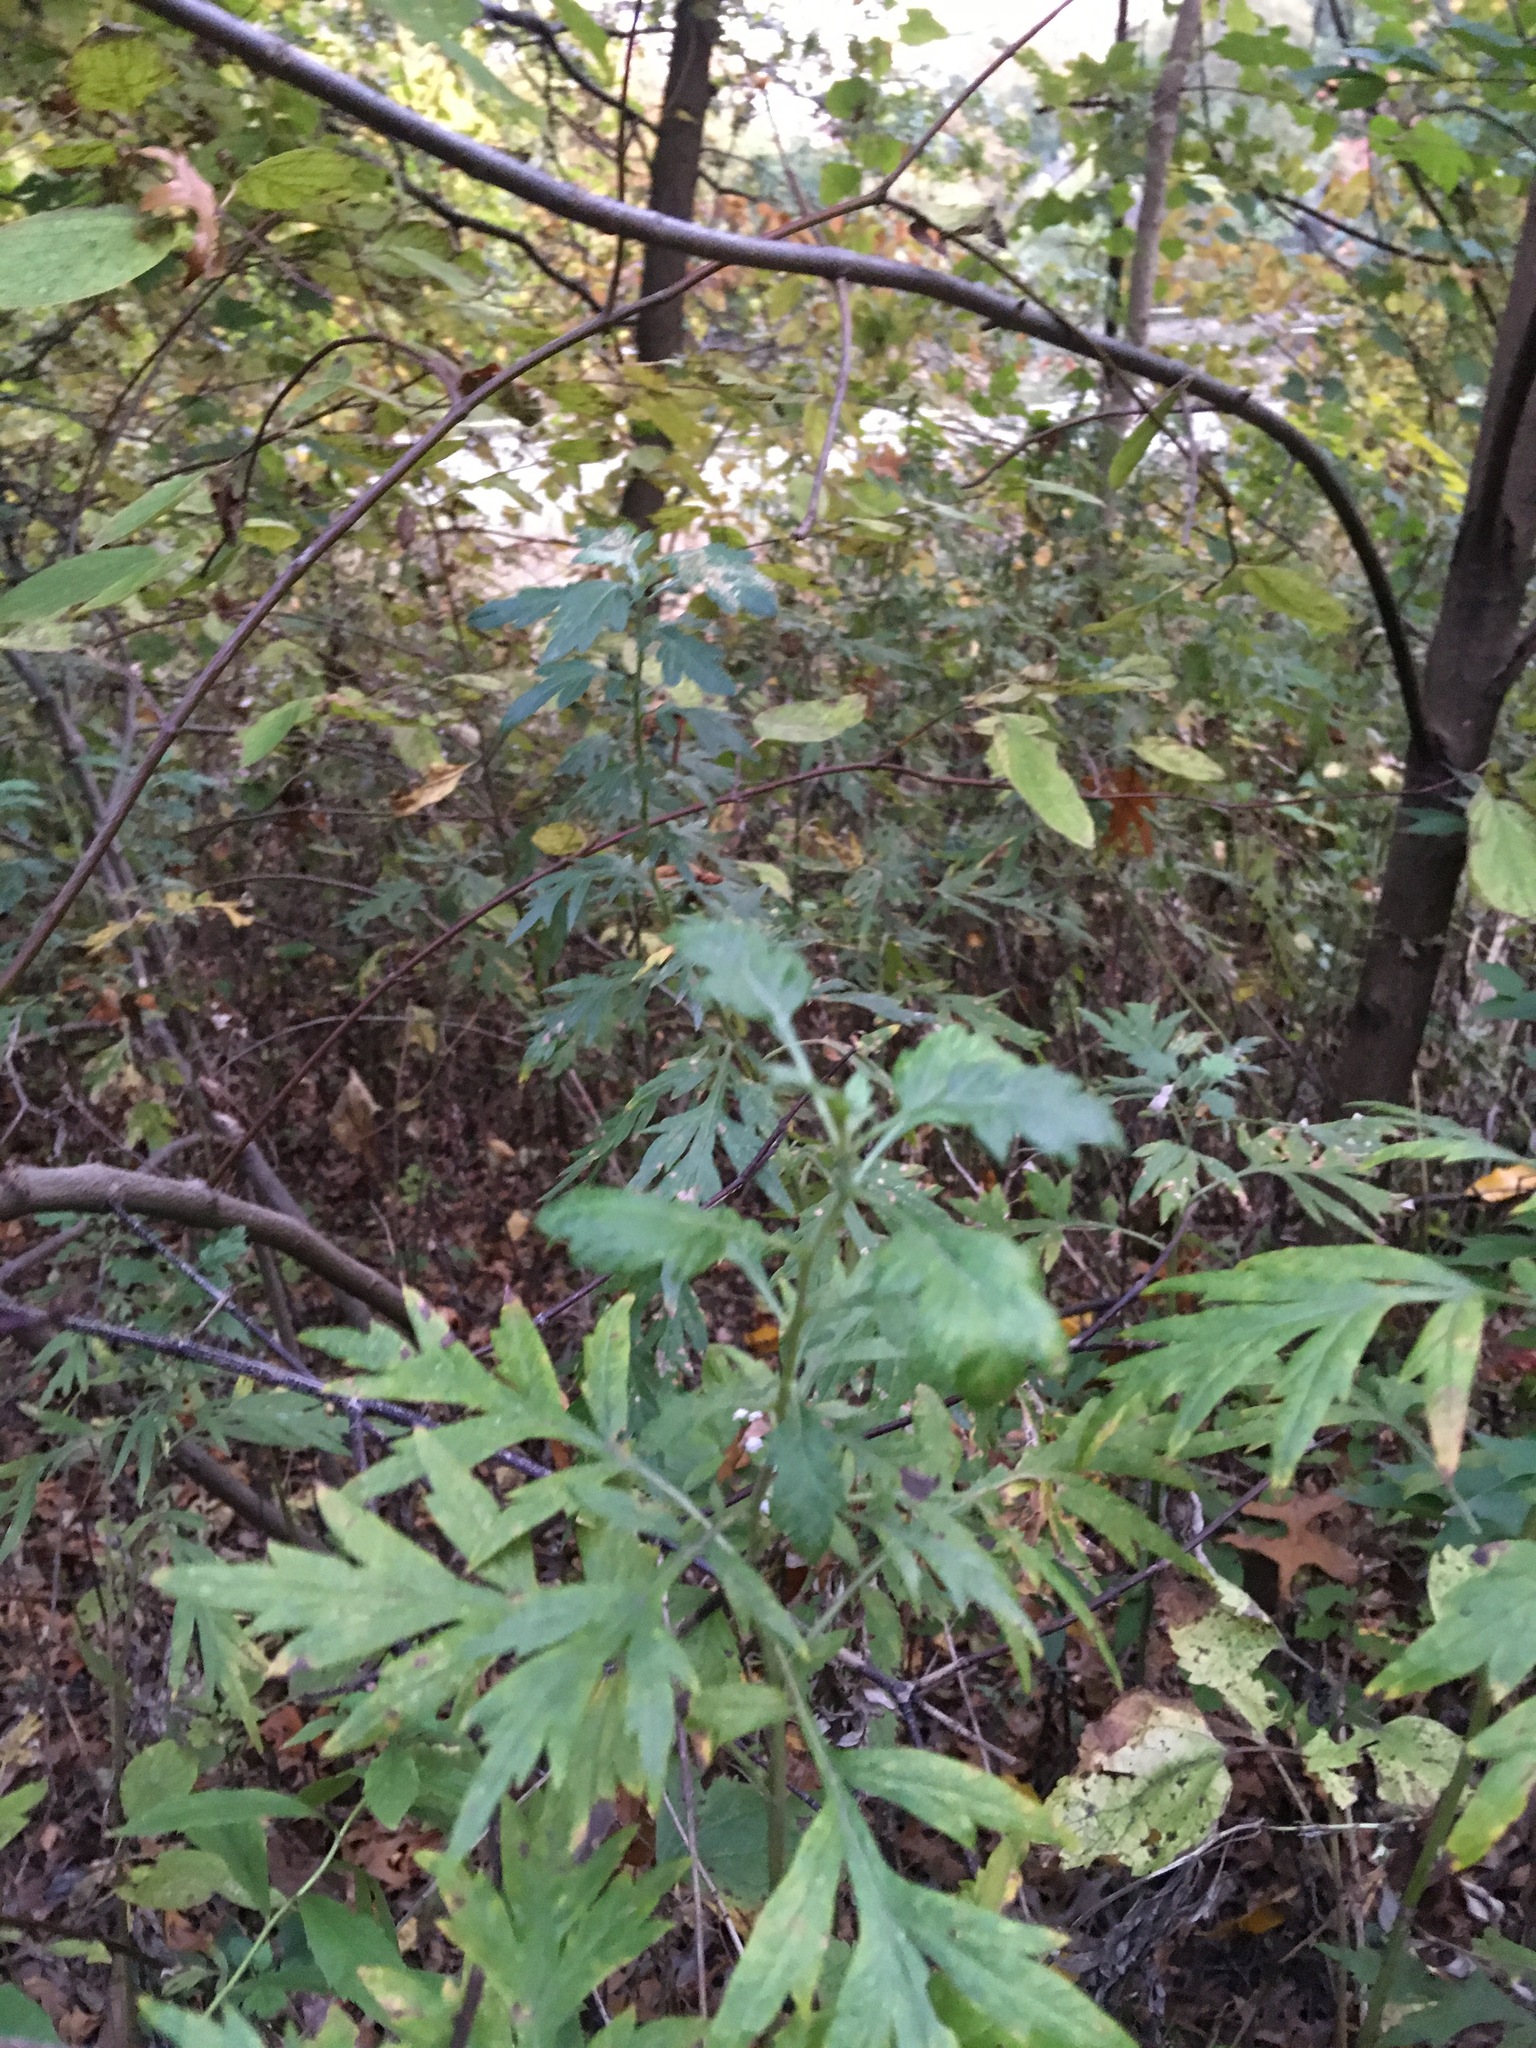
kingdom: Plantae
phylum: Tracheophyta
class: Magnoliopsida
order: Asterales
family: Asteraceae
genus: Artemisia
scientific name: Artemisia vulgaris
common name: Mugwort
